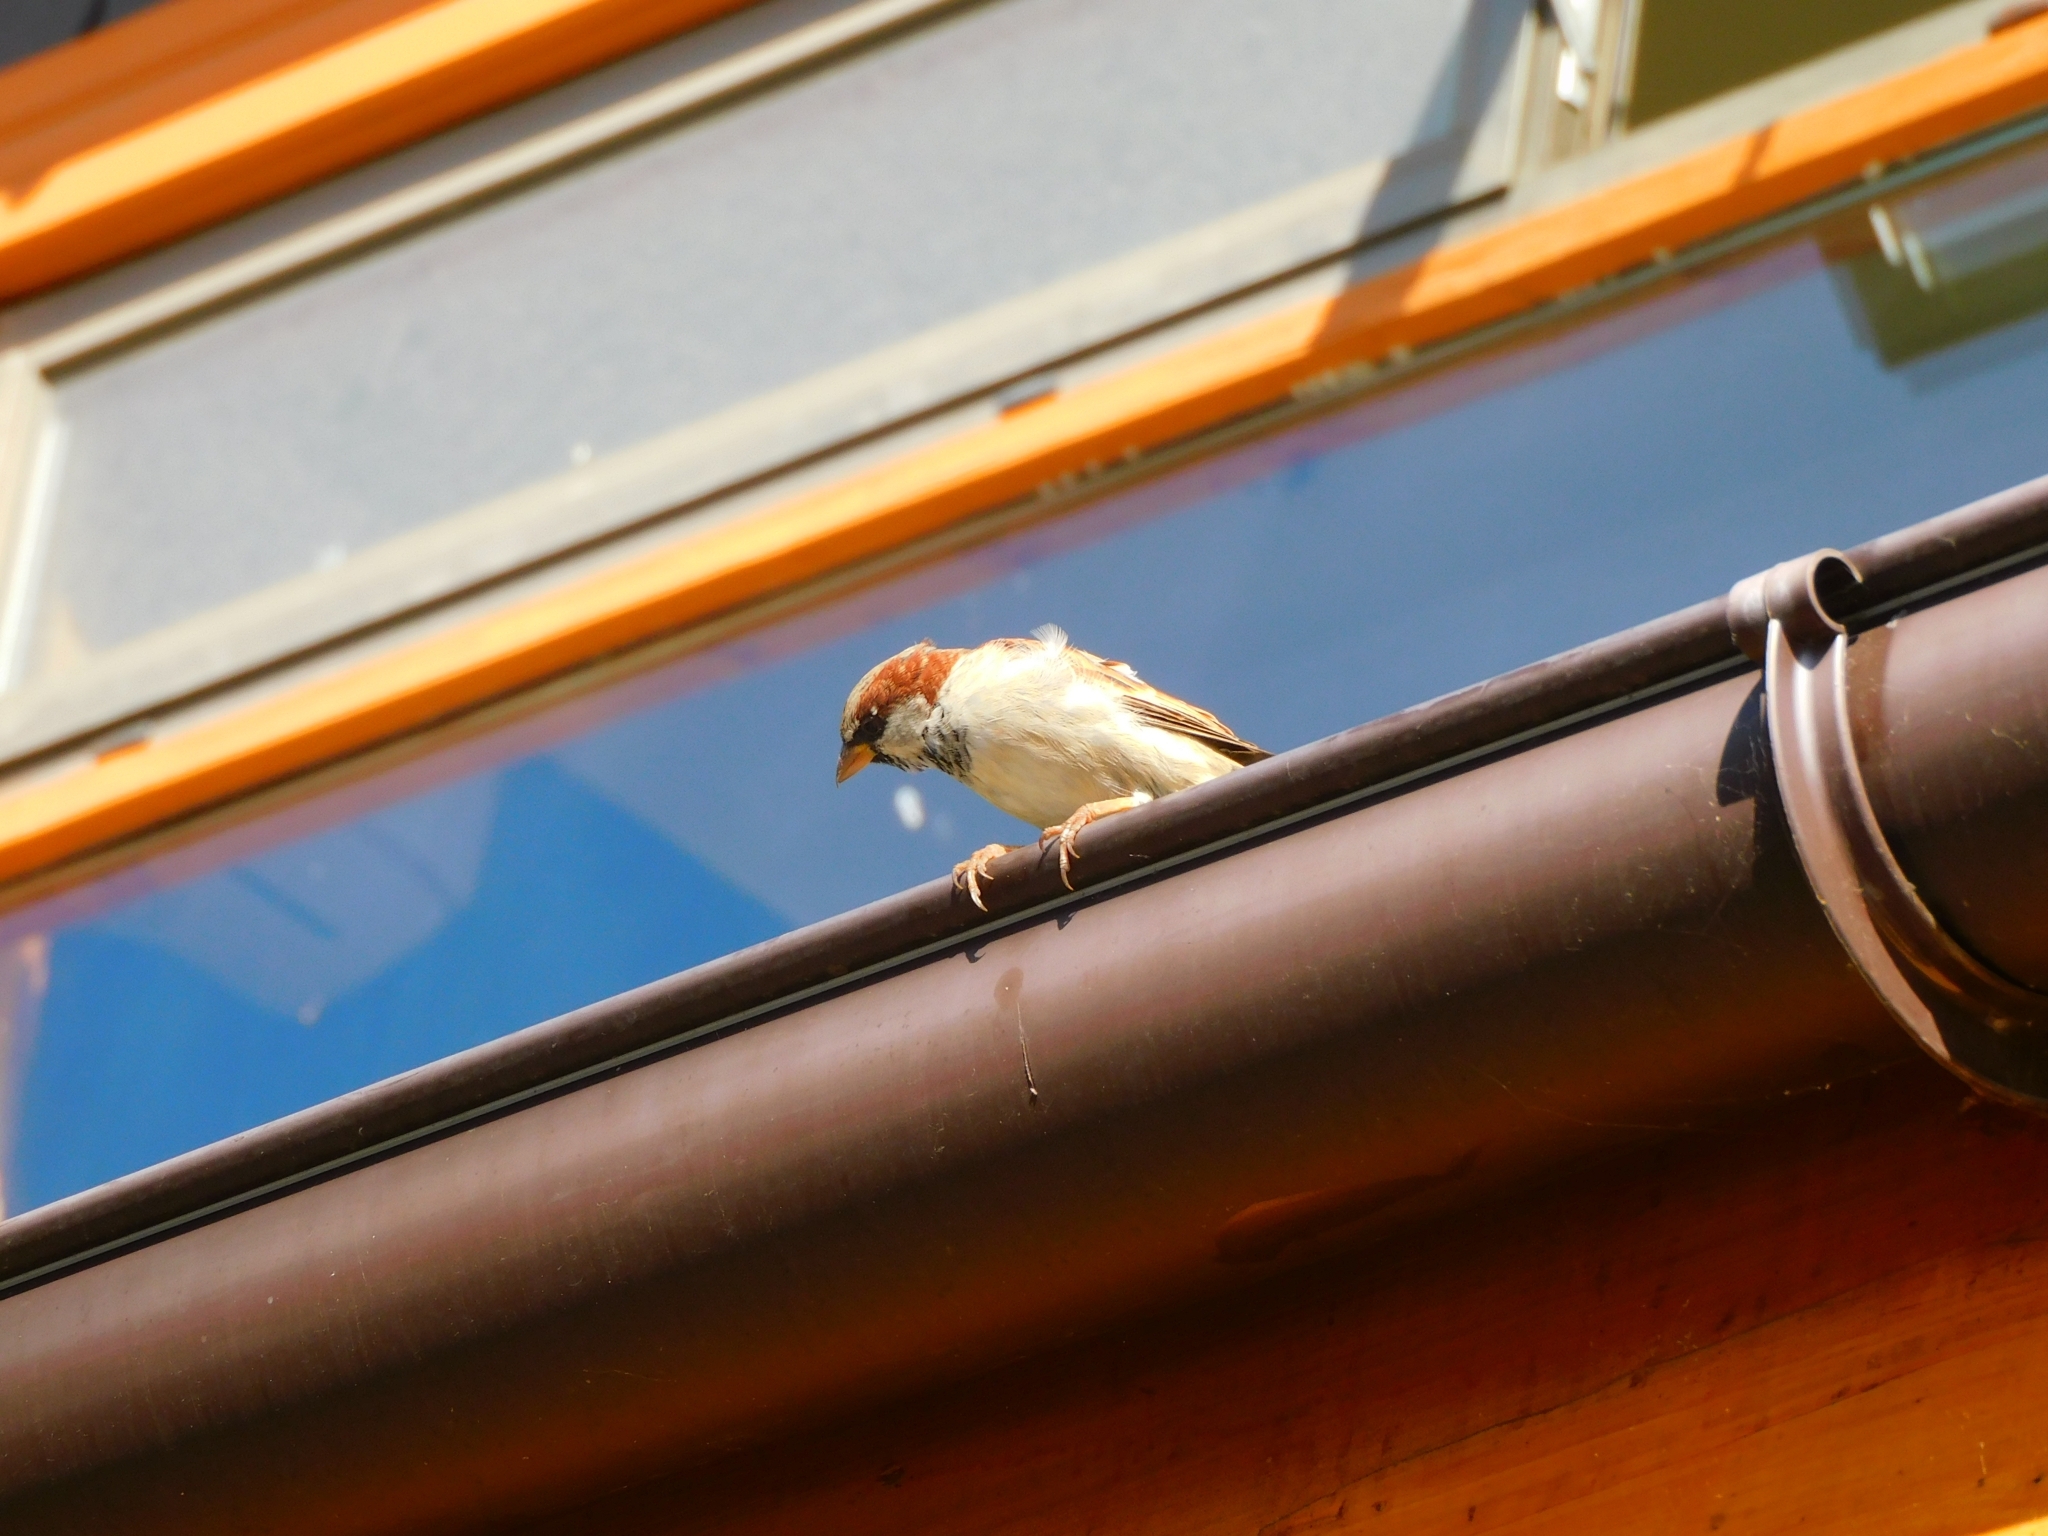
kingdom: Animalia
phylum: Chordata
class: Aves
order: Passeriformes
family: Passeridae
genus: Passer
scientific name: Passer domesticus
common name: House sparrow
